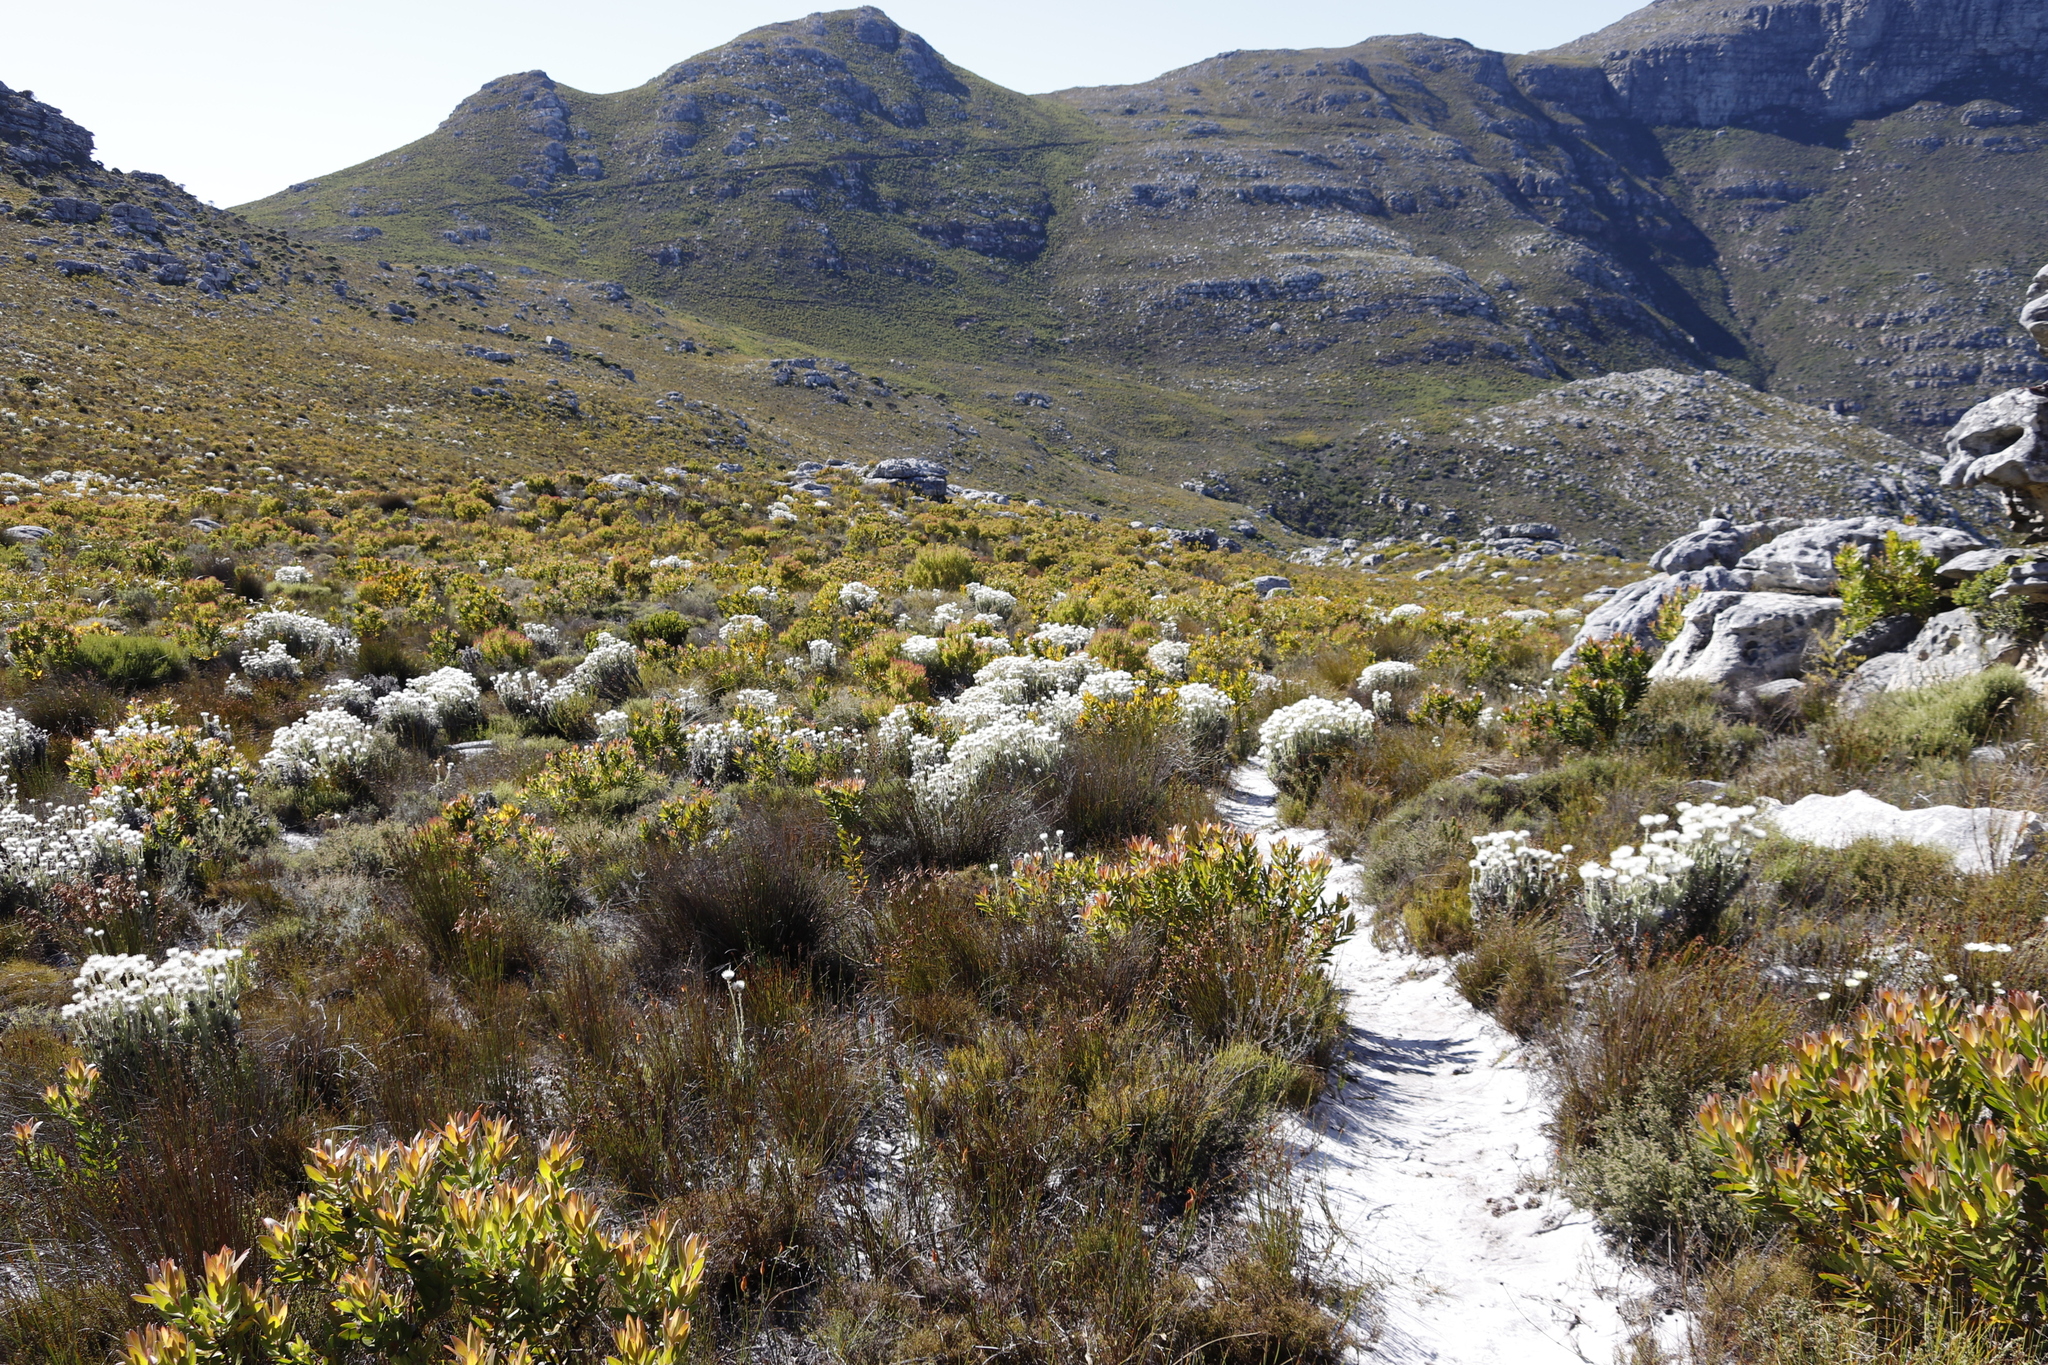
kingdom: Plantae
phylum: Tracheophyta
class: Magnoliopsida
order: Proteales
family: Proteaceae
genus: Leucadendron
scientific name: Leucadendron laureolum
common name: Golden sunshinebush
